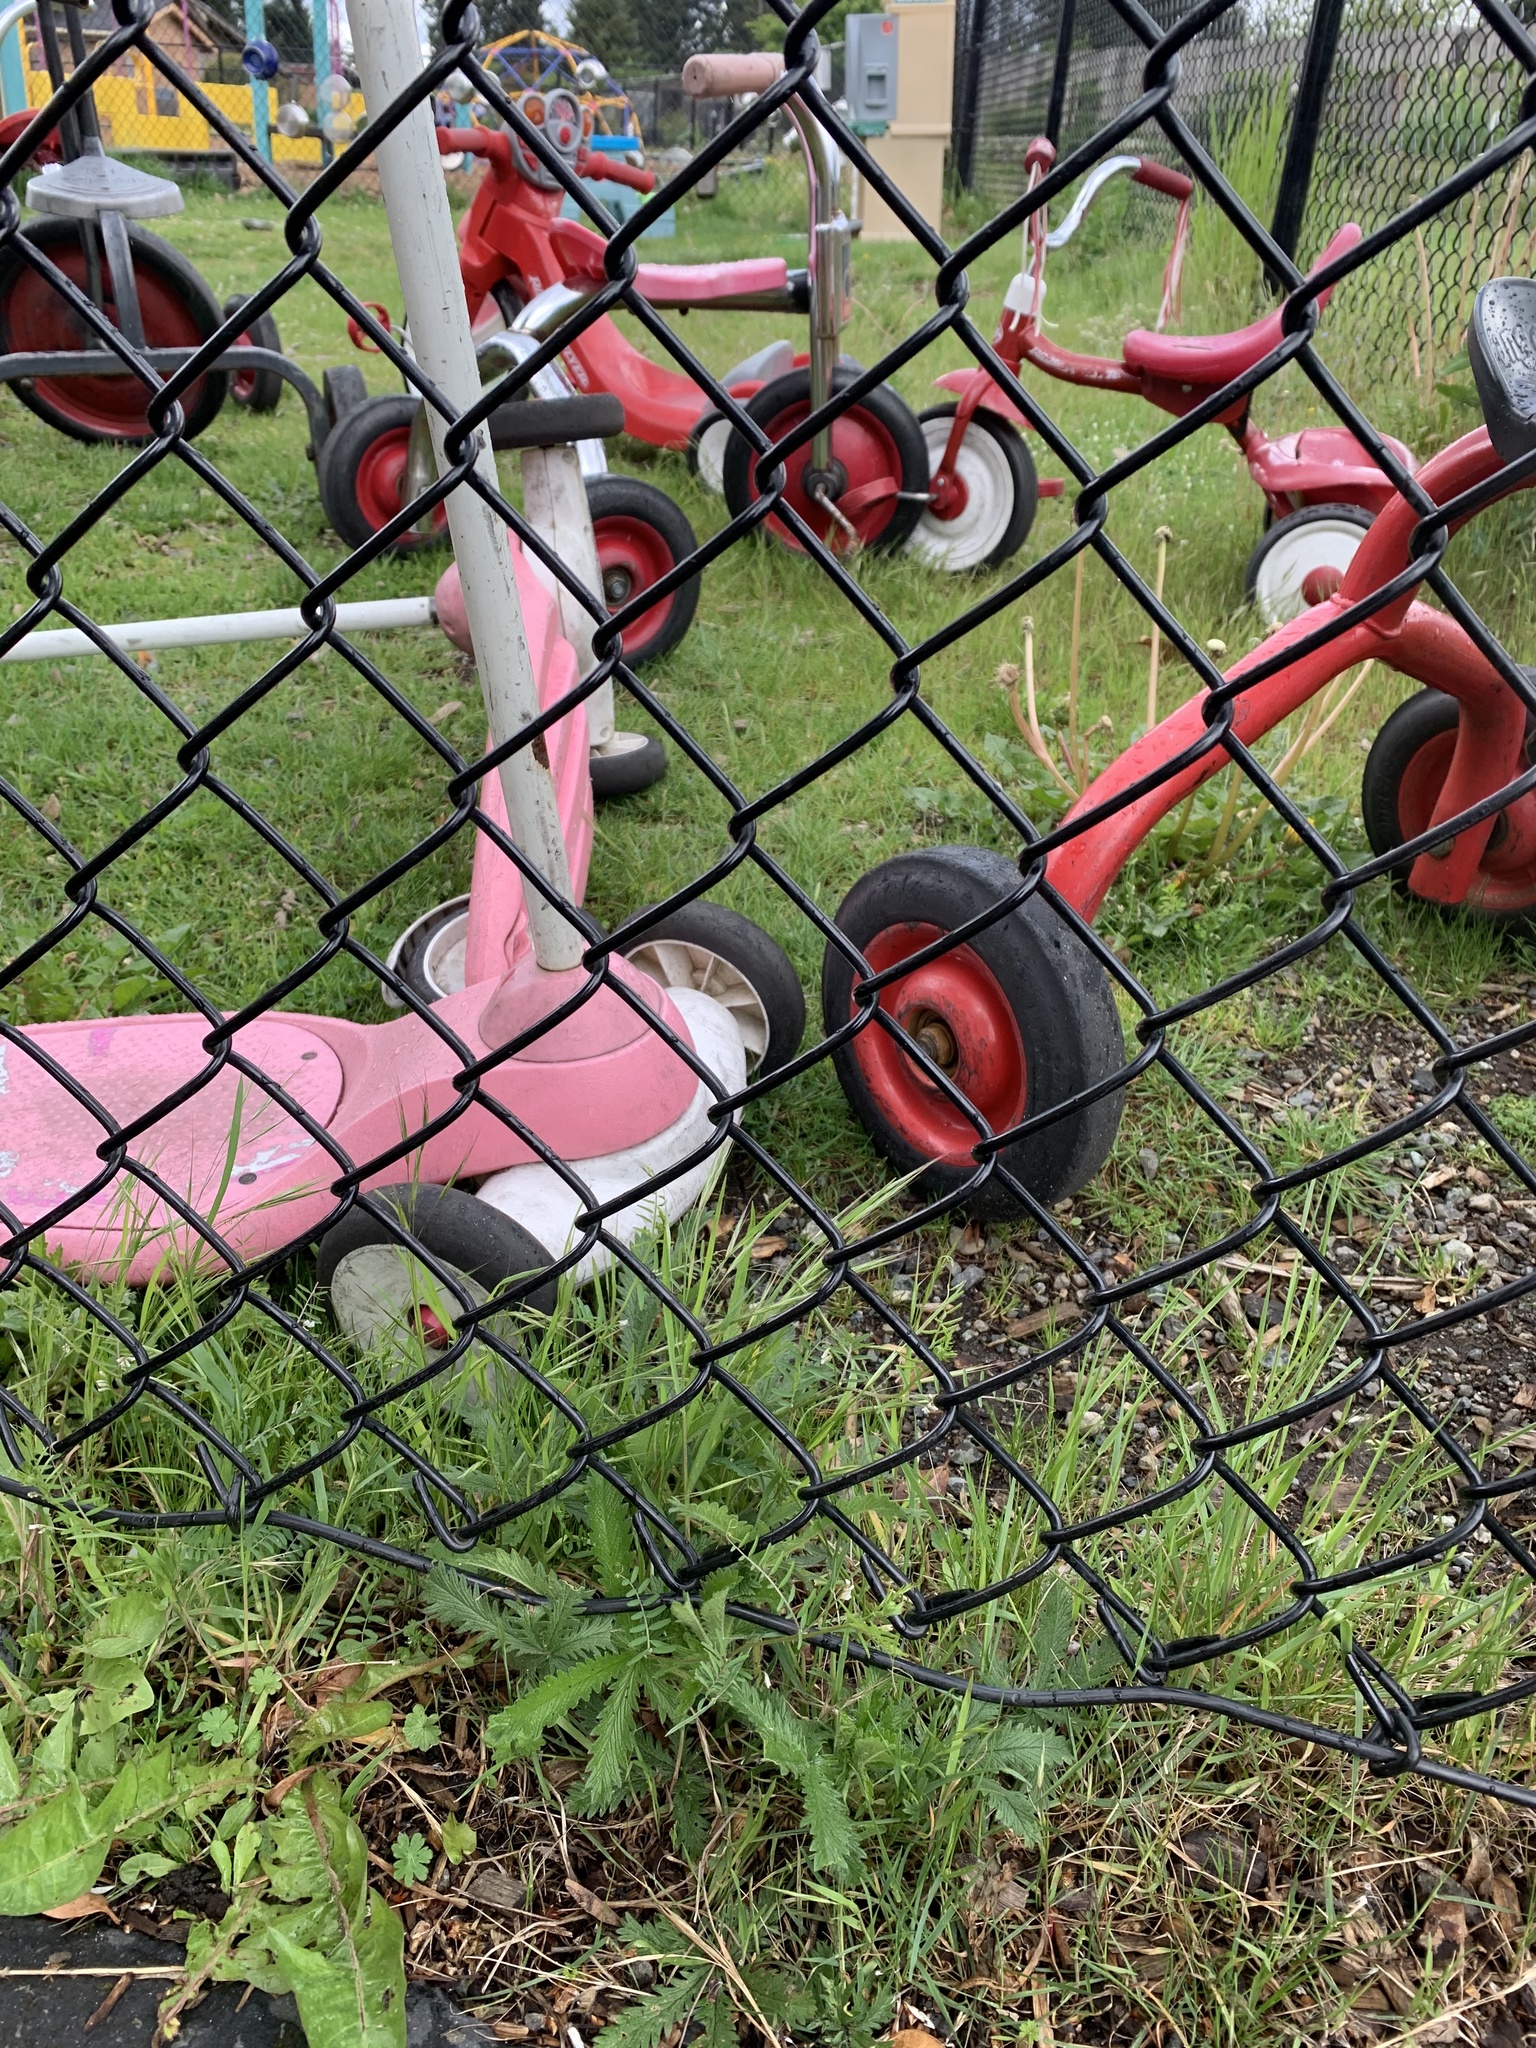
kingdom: Plantae
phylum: Tracheophyta
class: Magnoliopsida
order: Rosales
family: Rosaceae
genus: Potentilla
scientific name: Potentilla recta
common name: Sulphur cinquefoil
